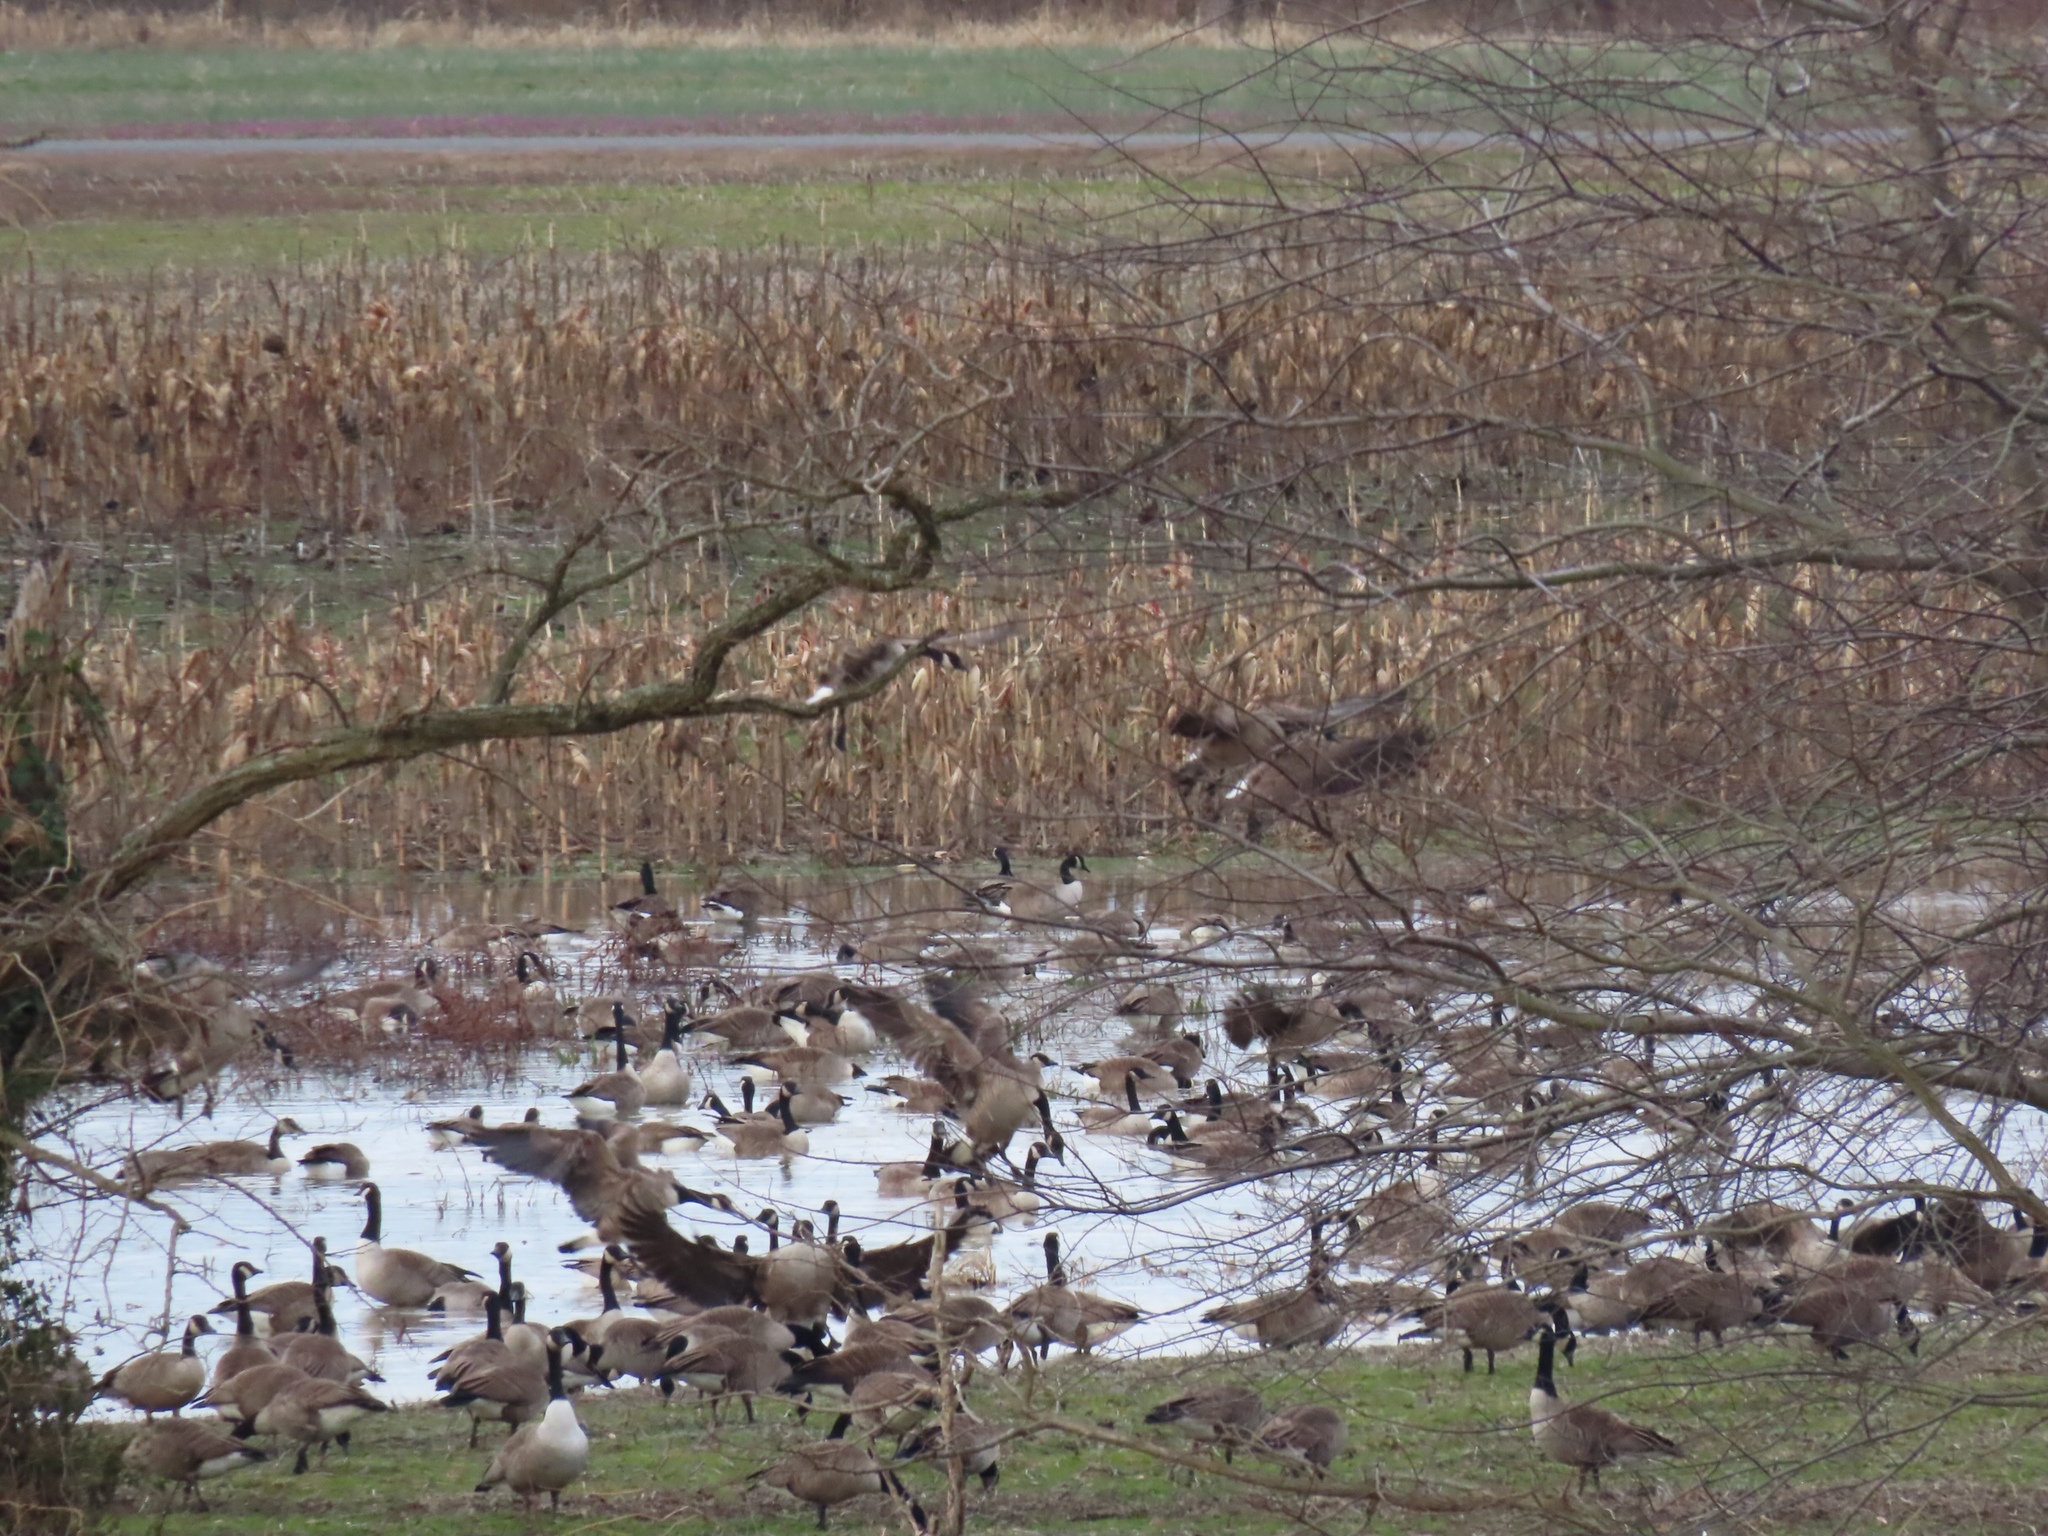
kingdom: Animalia
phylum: Chordata
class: Aves
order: Anseriformes
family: Anatidae
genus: Branta
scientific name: Branta canadensis
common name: Canada goose
